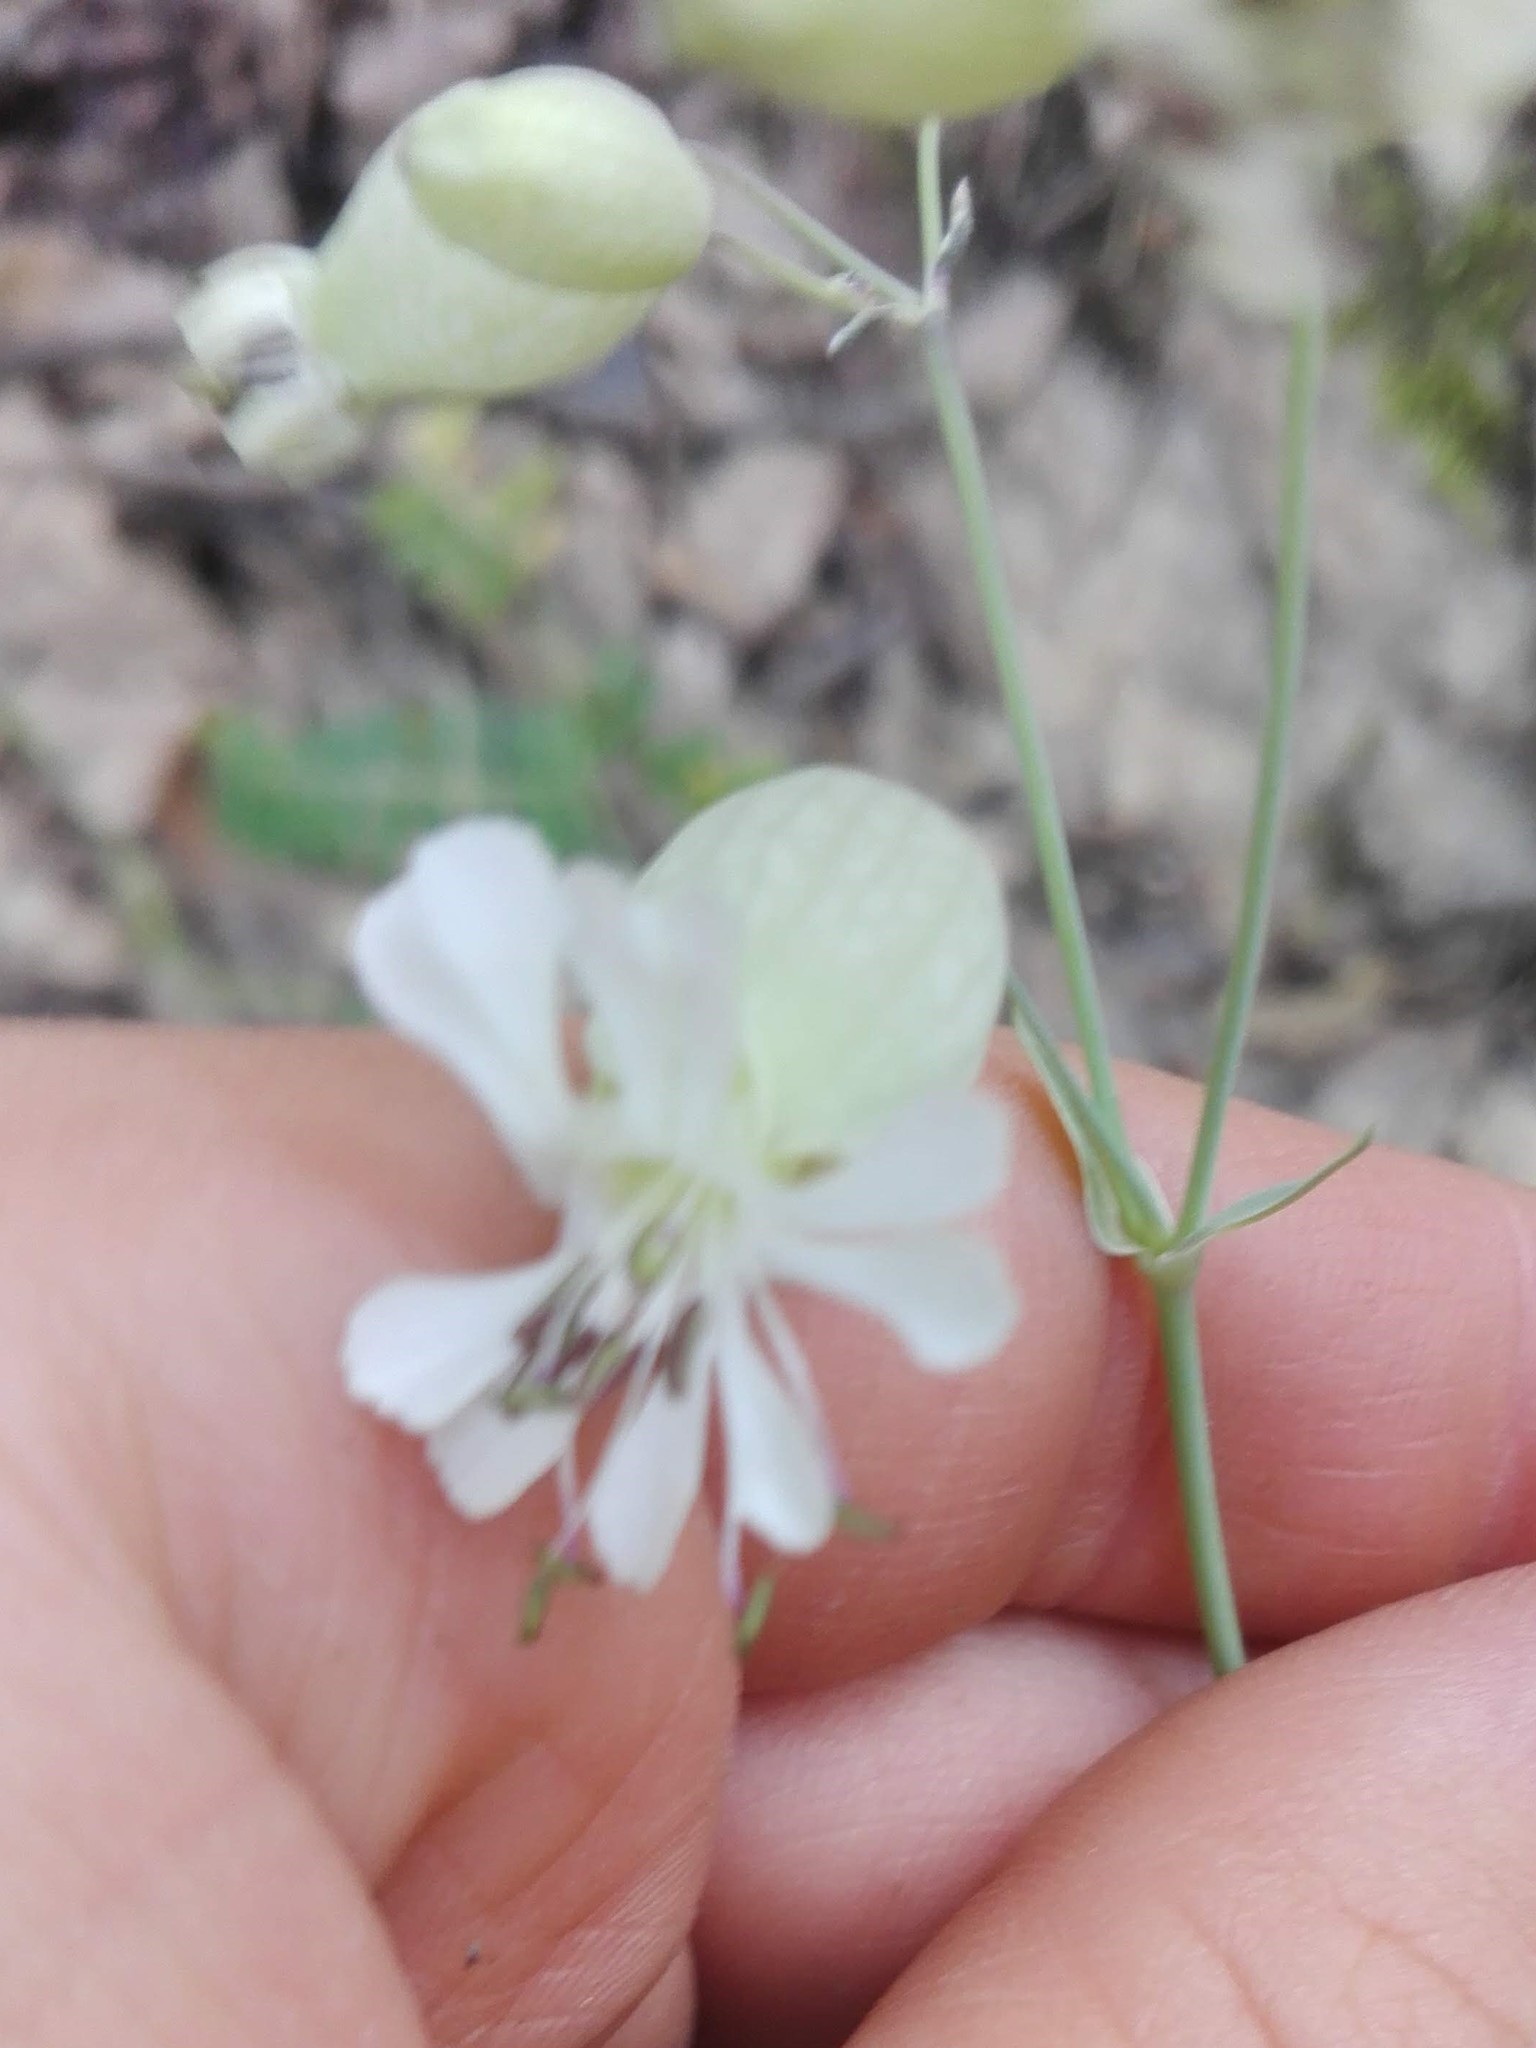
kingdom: Plantae
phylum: Tracheophyta
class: Magnoliopsida
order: Caryophyllales
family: Caryophyllaceae
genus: Silene
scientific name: Silene vulgaris
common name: Bladder campion
